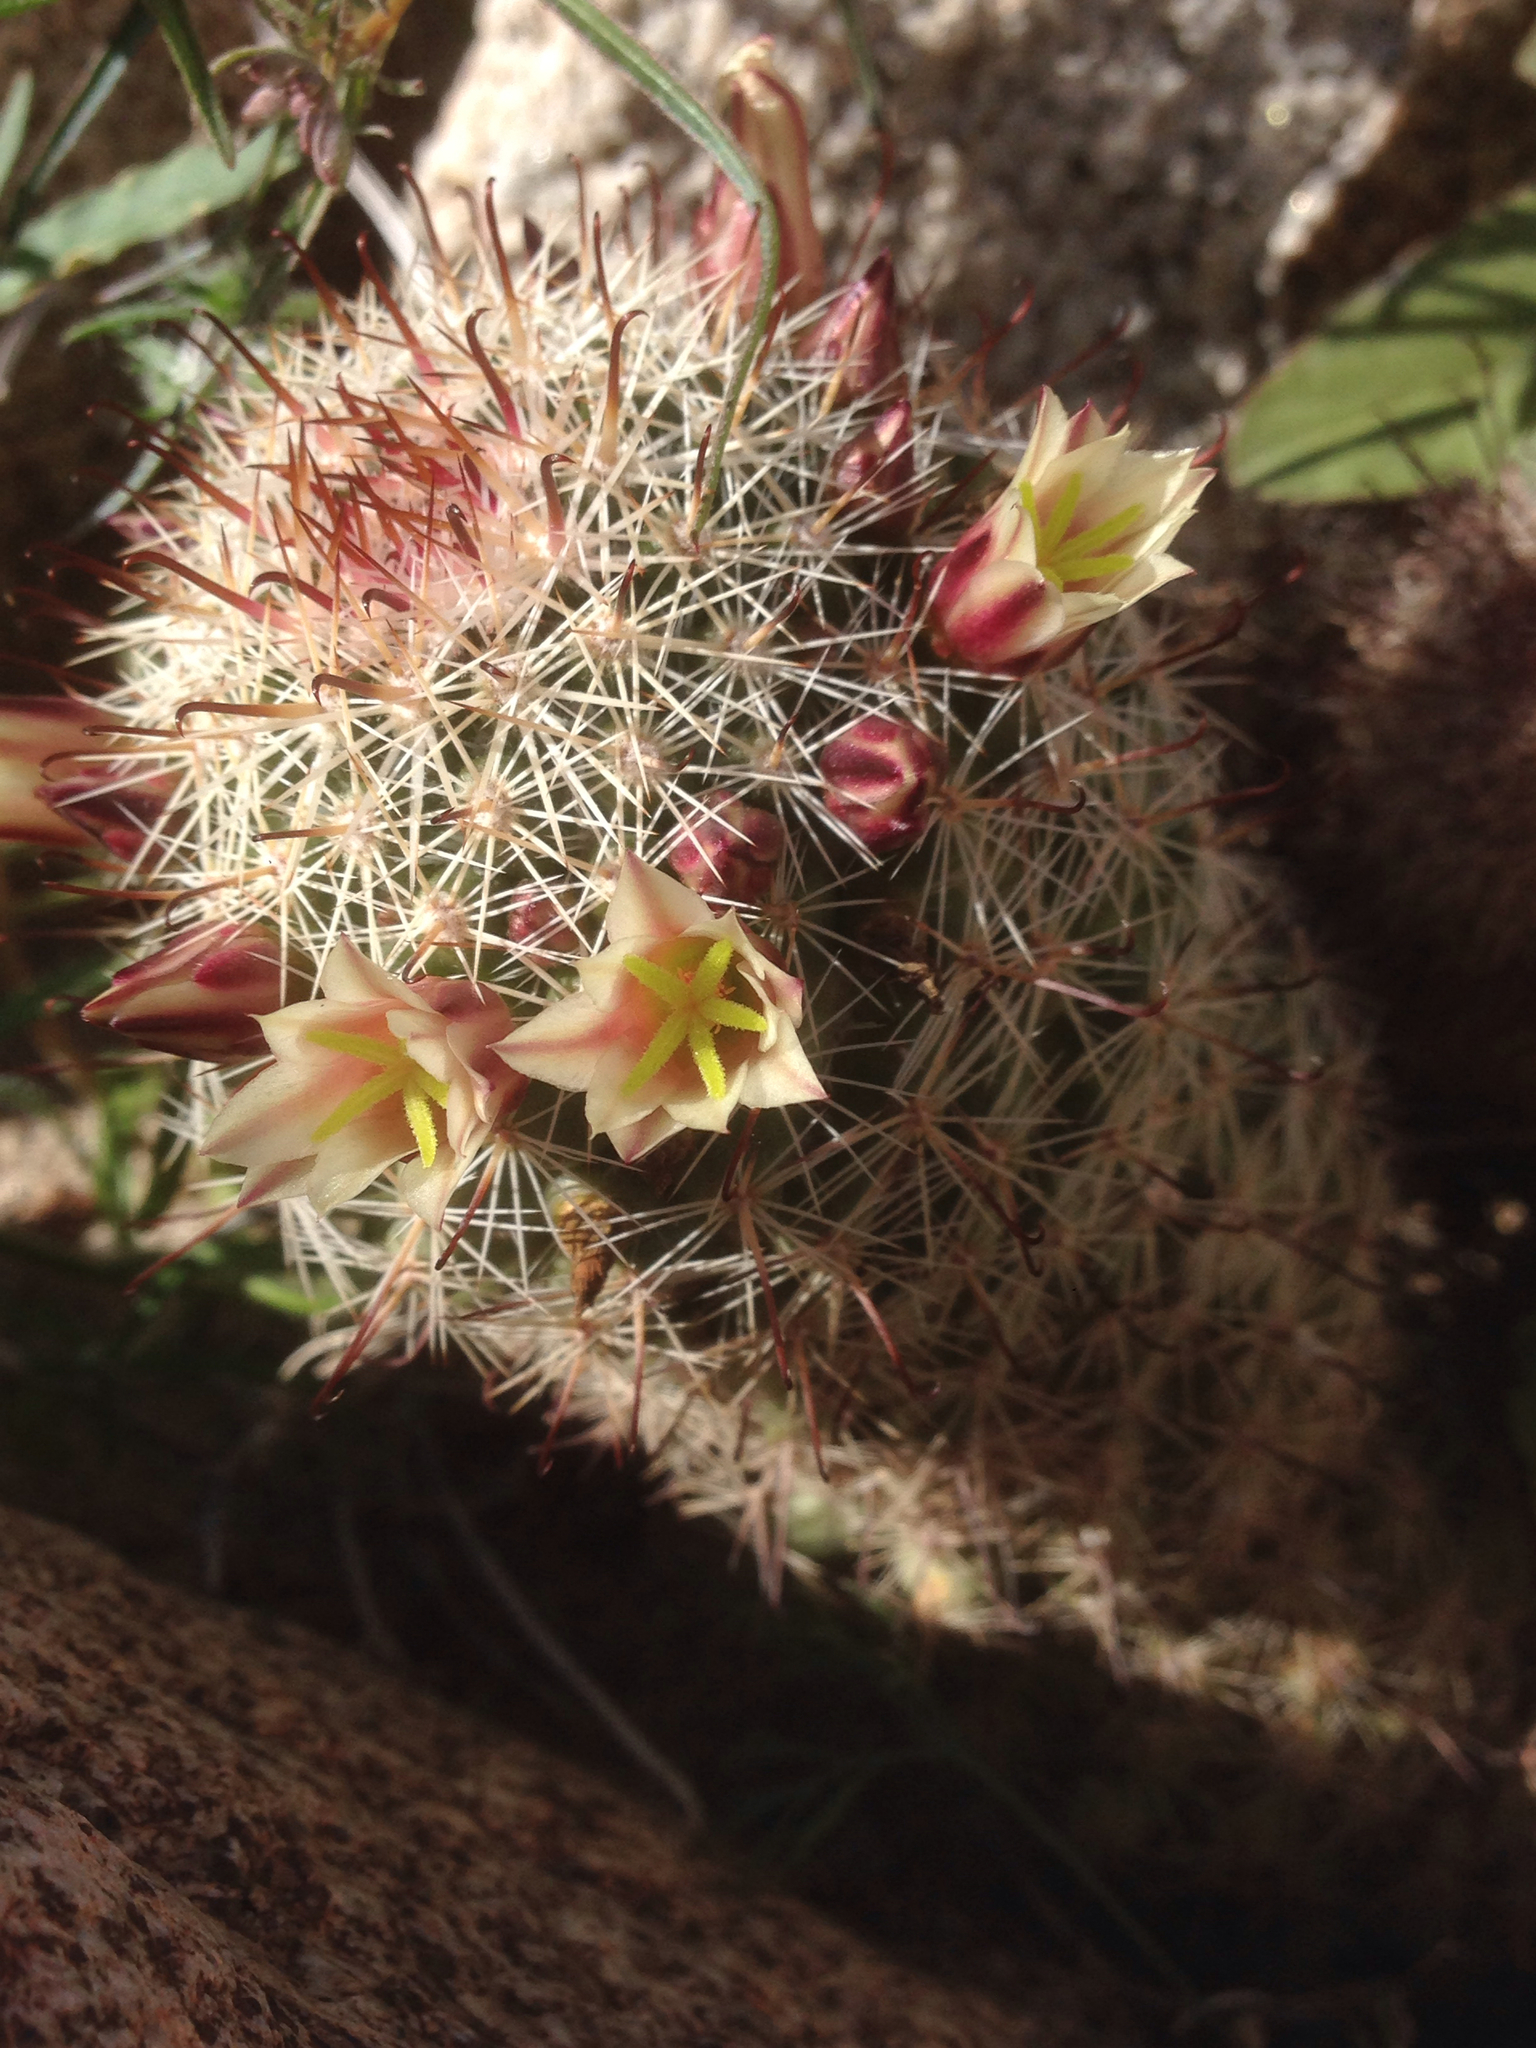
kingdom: Plantae
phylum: Tracheophyta
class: Magnoliopsida
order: Caryophyllales
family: Cactaceae
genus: Cochemiea
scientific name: Cochemiea dioica
